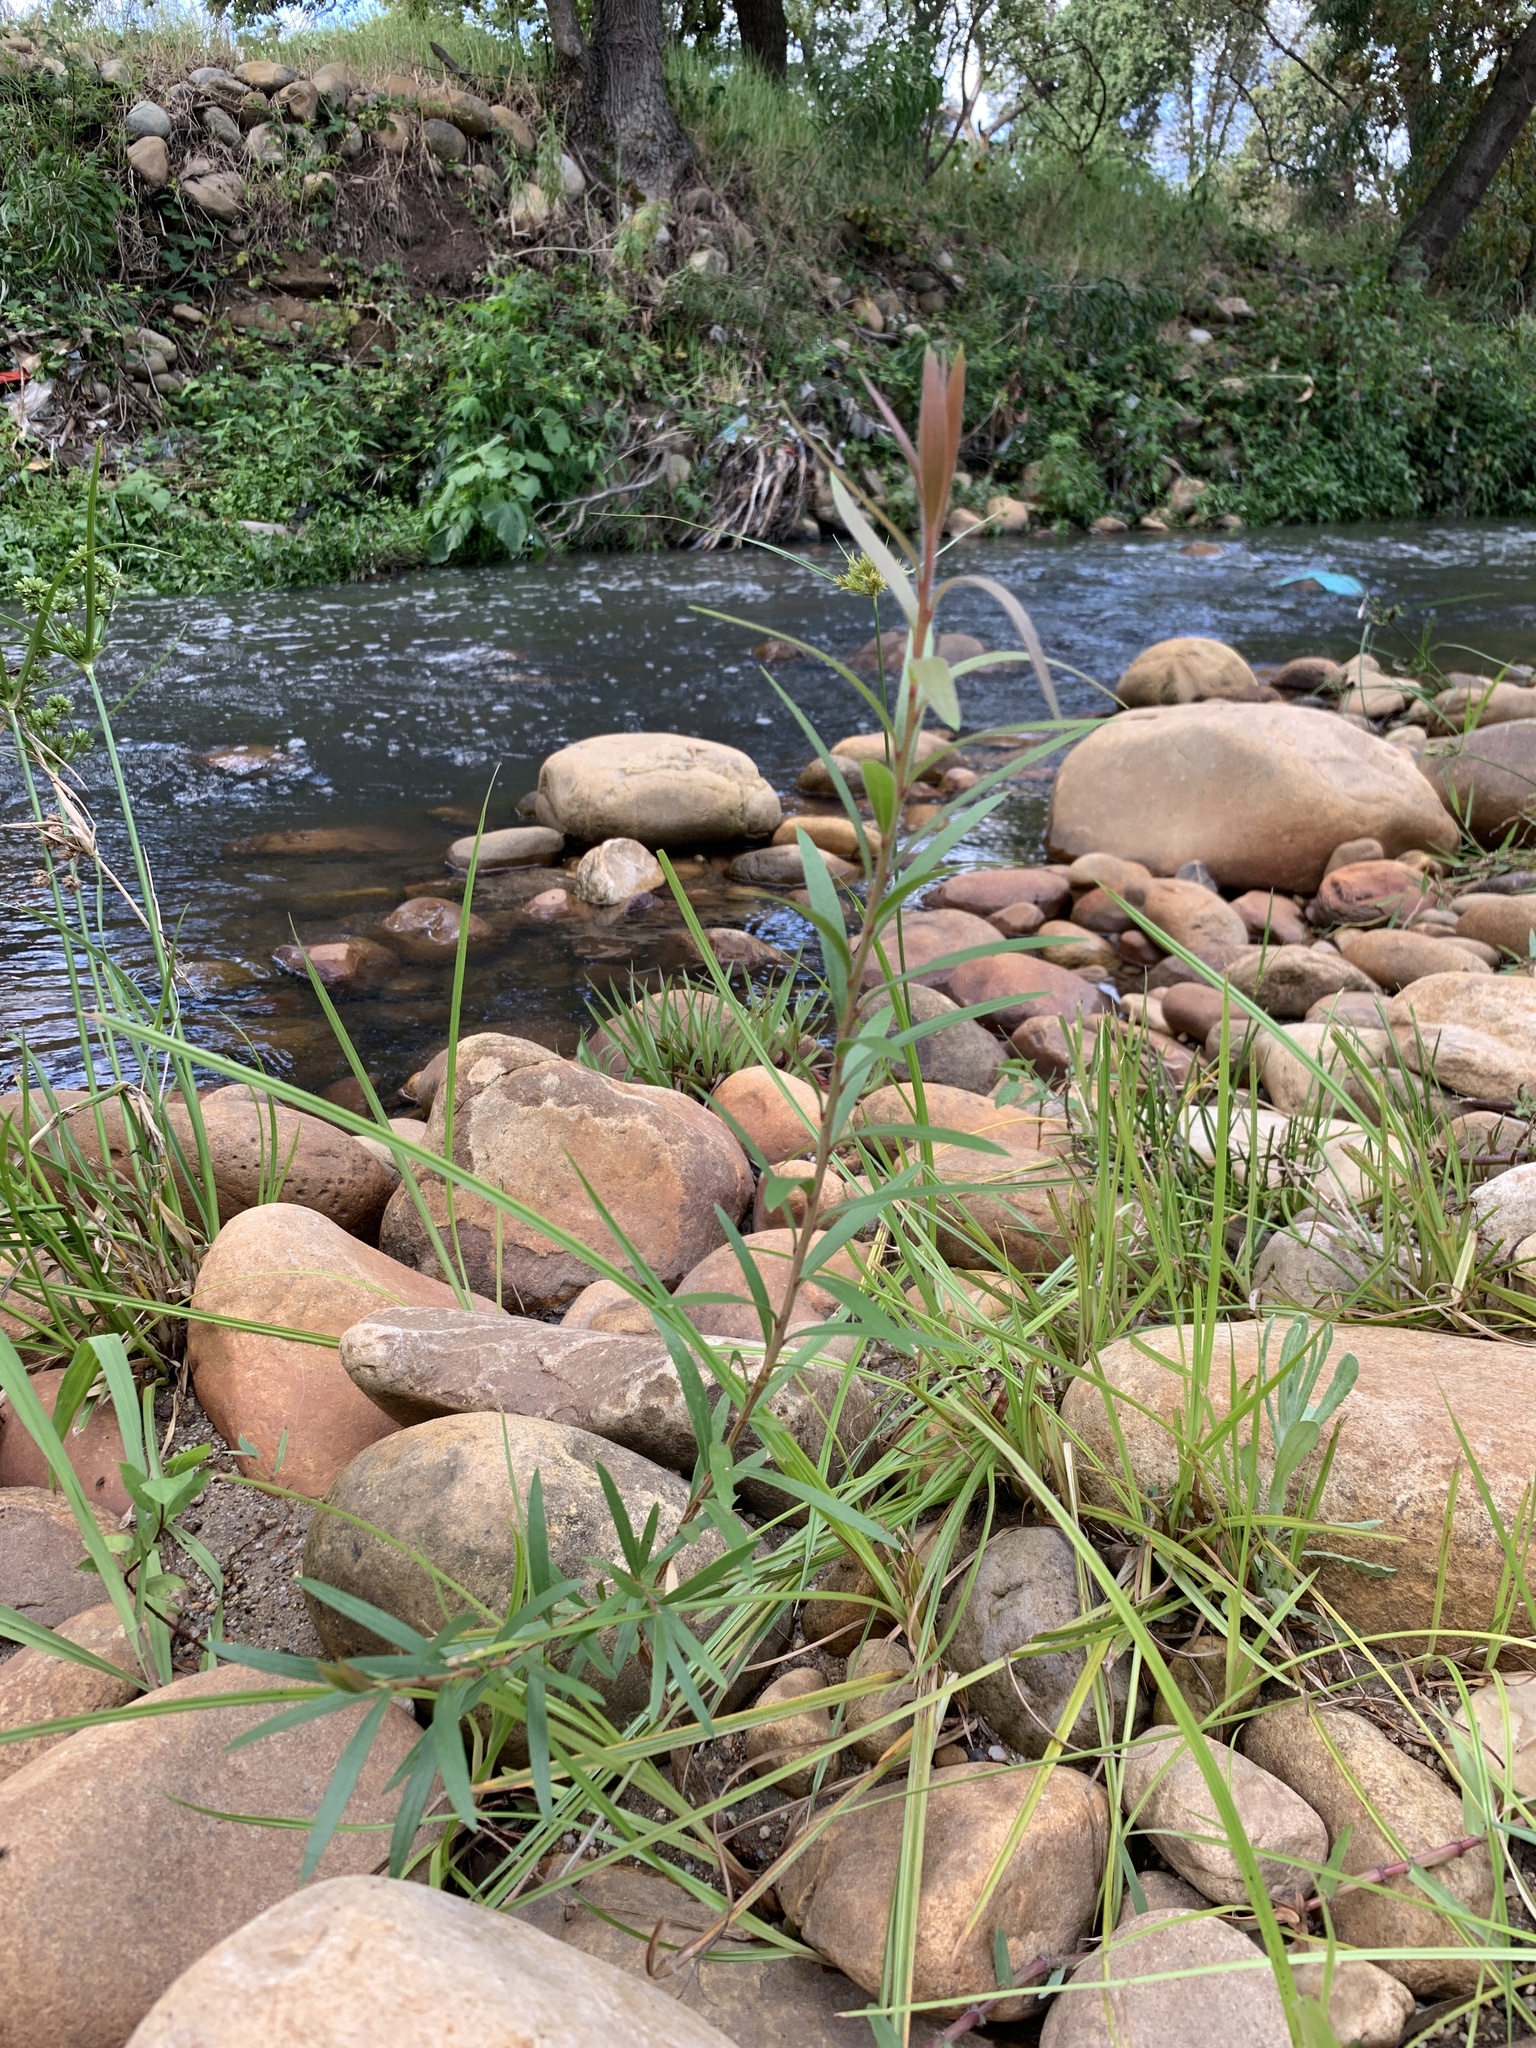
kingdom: Plantae
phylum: Tracheophyta
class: Magnoliopsida
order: Myrtales
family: Myrtaceae
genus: Callistemon
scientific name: Callistemon viminalis
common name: Drooping bottlebrush
